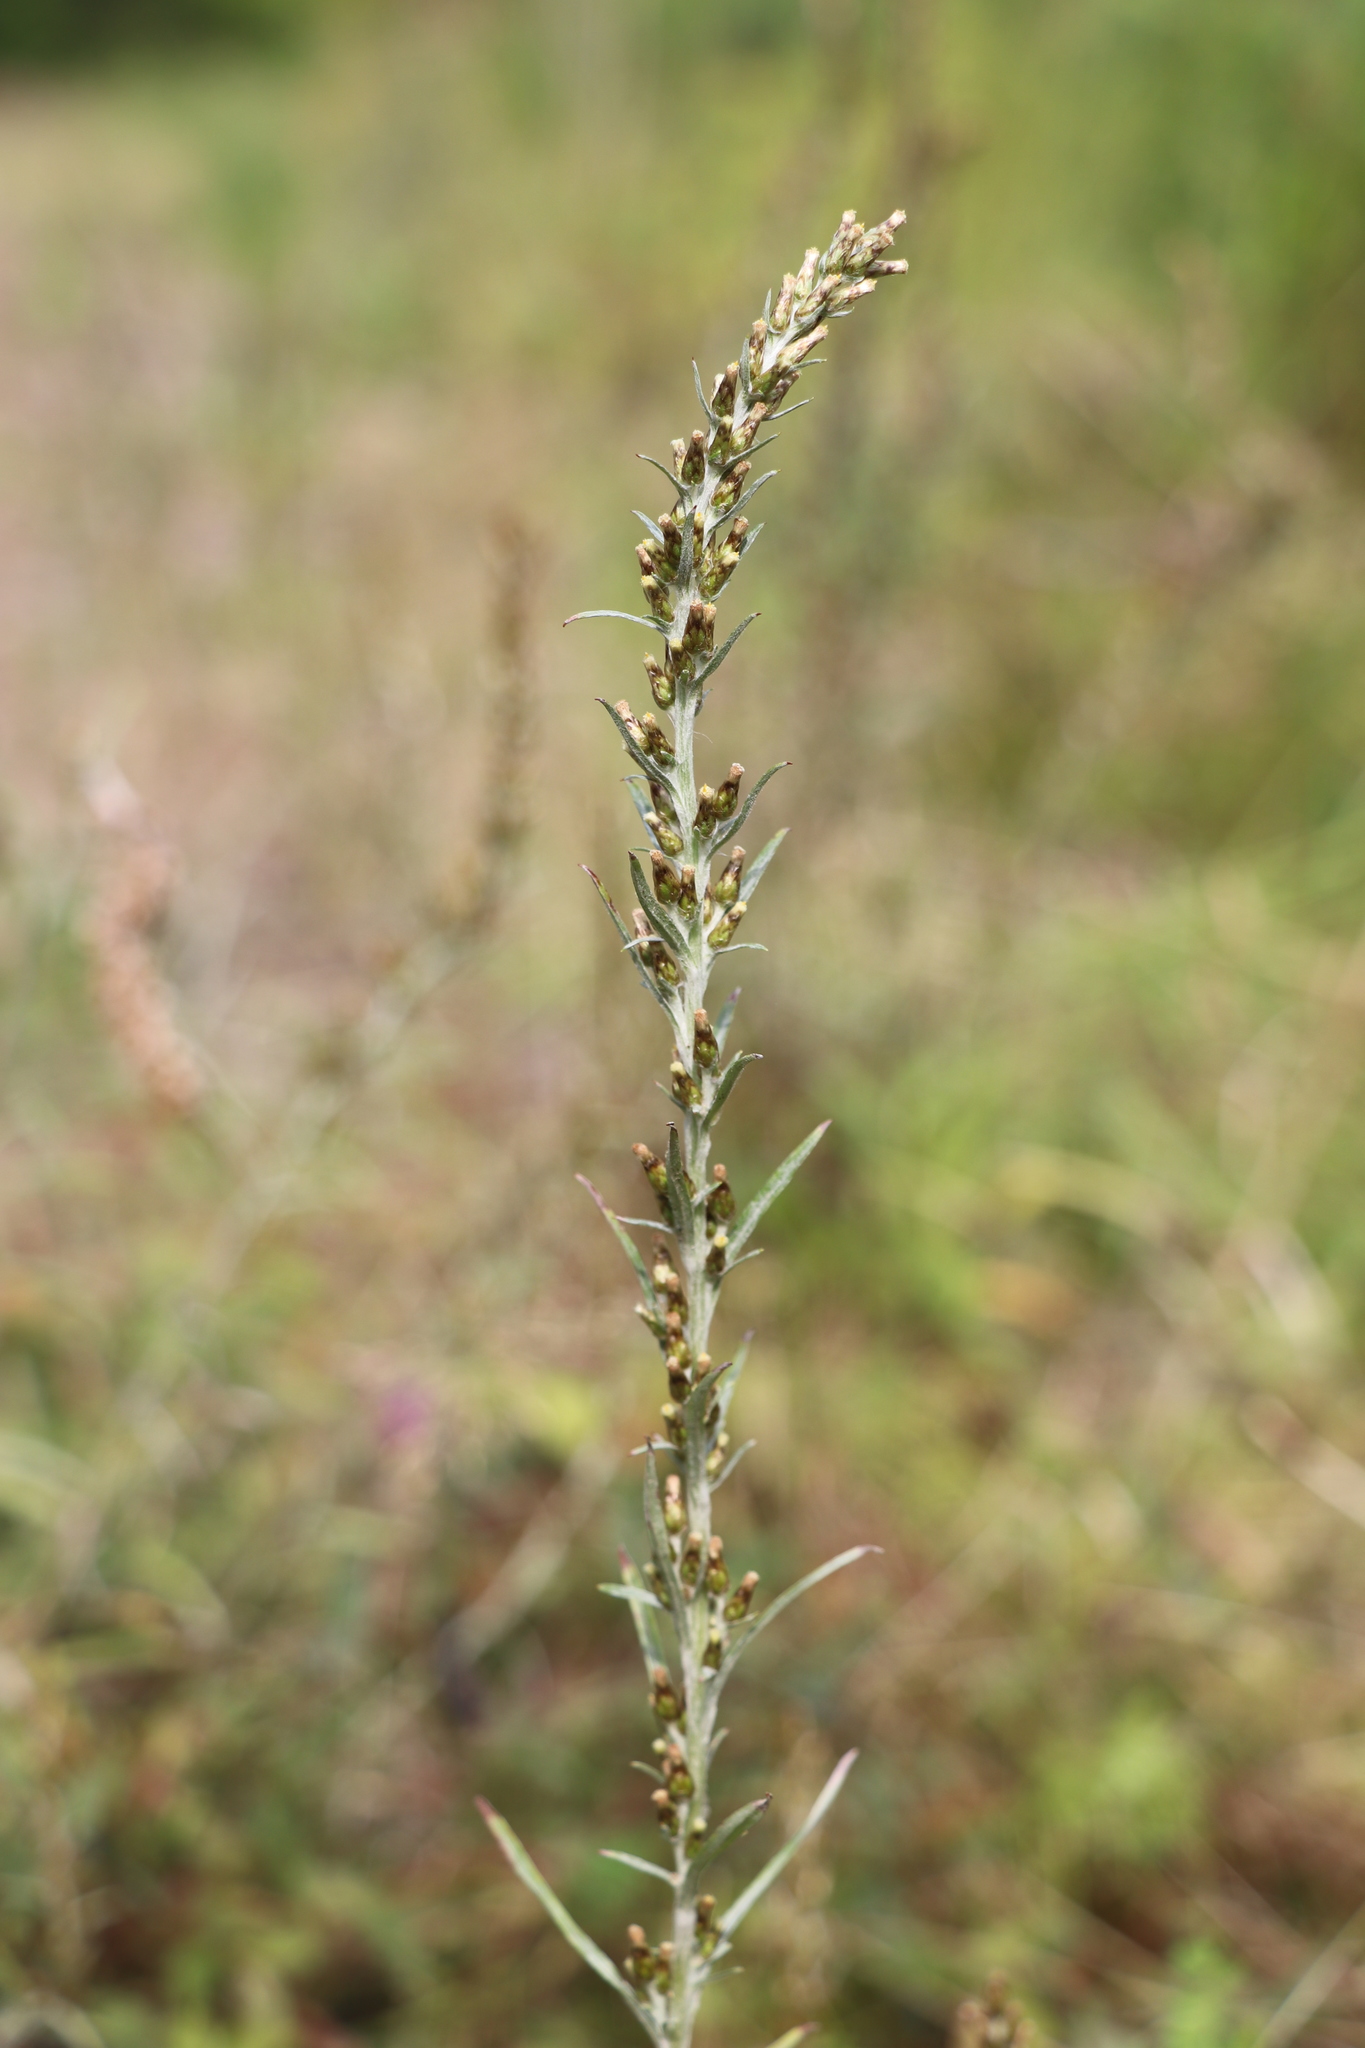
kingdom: Plantae
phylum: Tracheophyta
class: Magnoliopsida
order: Asterales
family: Asteraceae
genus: Omalotheca
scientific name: Omalotheca sylvatica
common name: Heath cudweed
